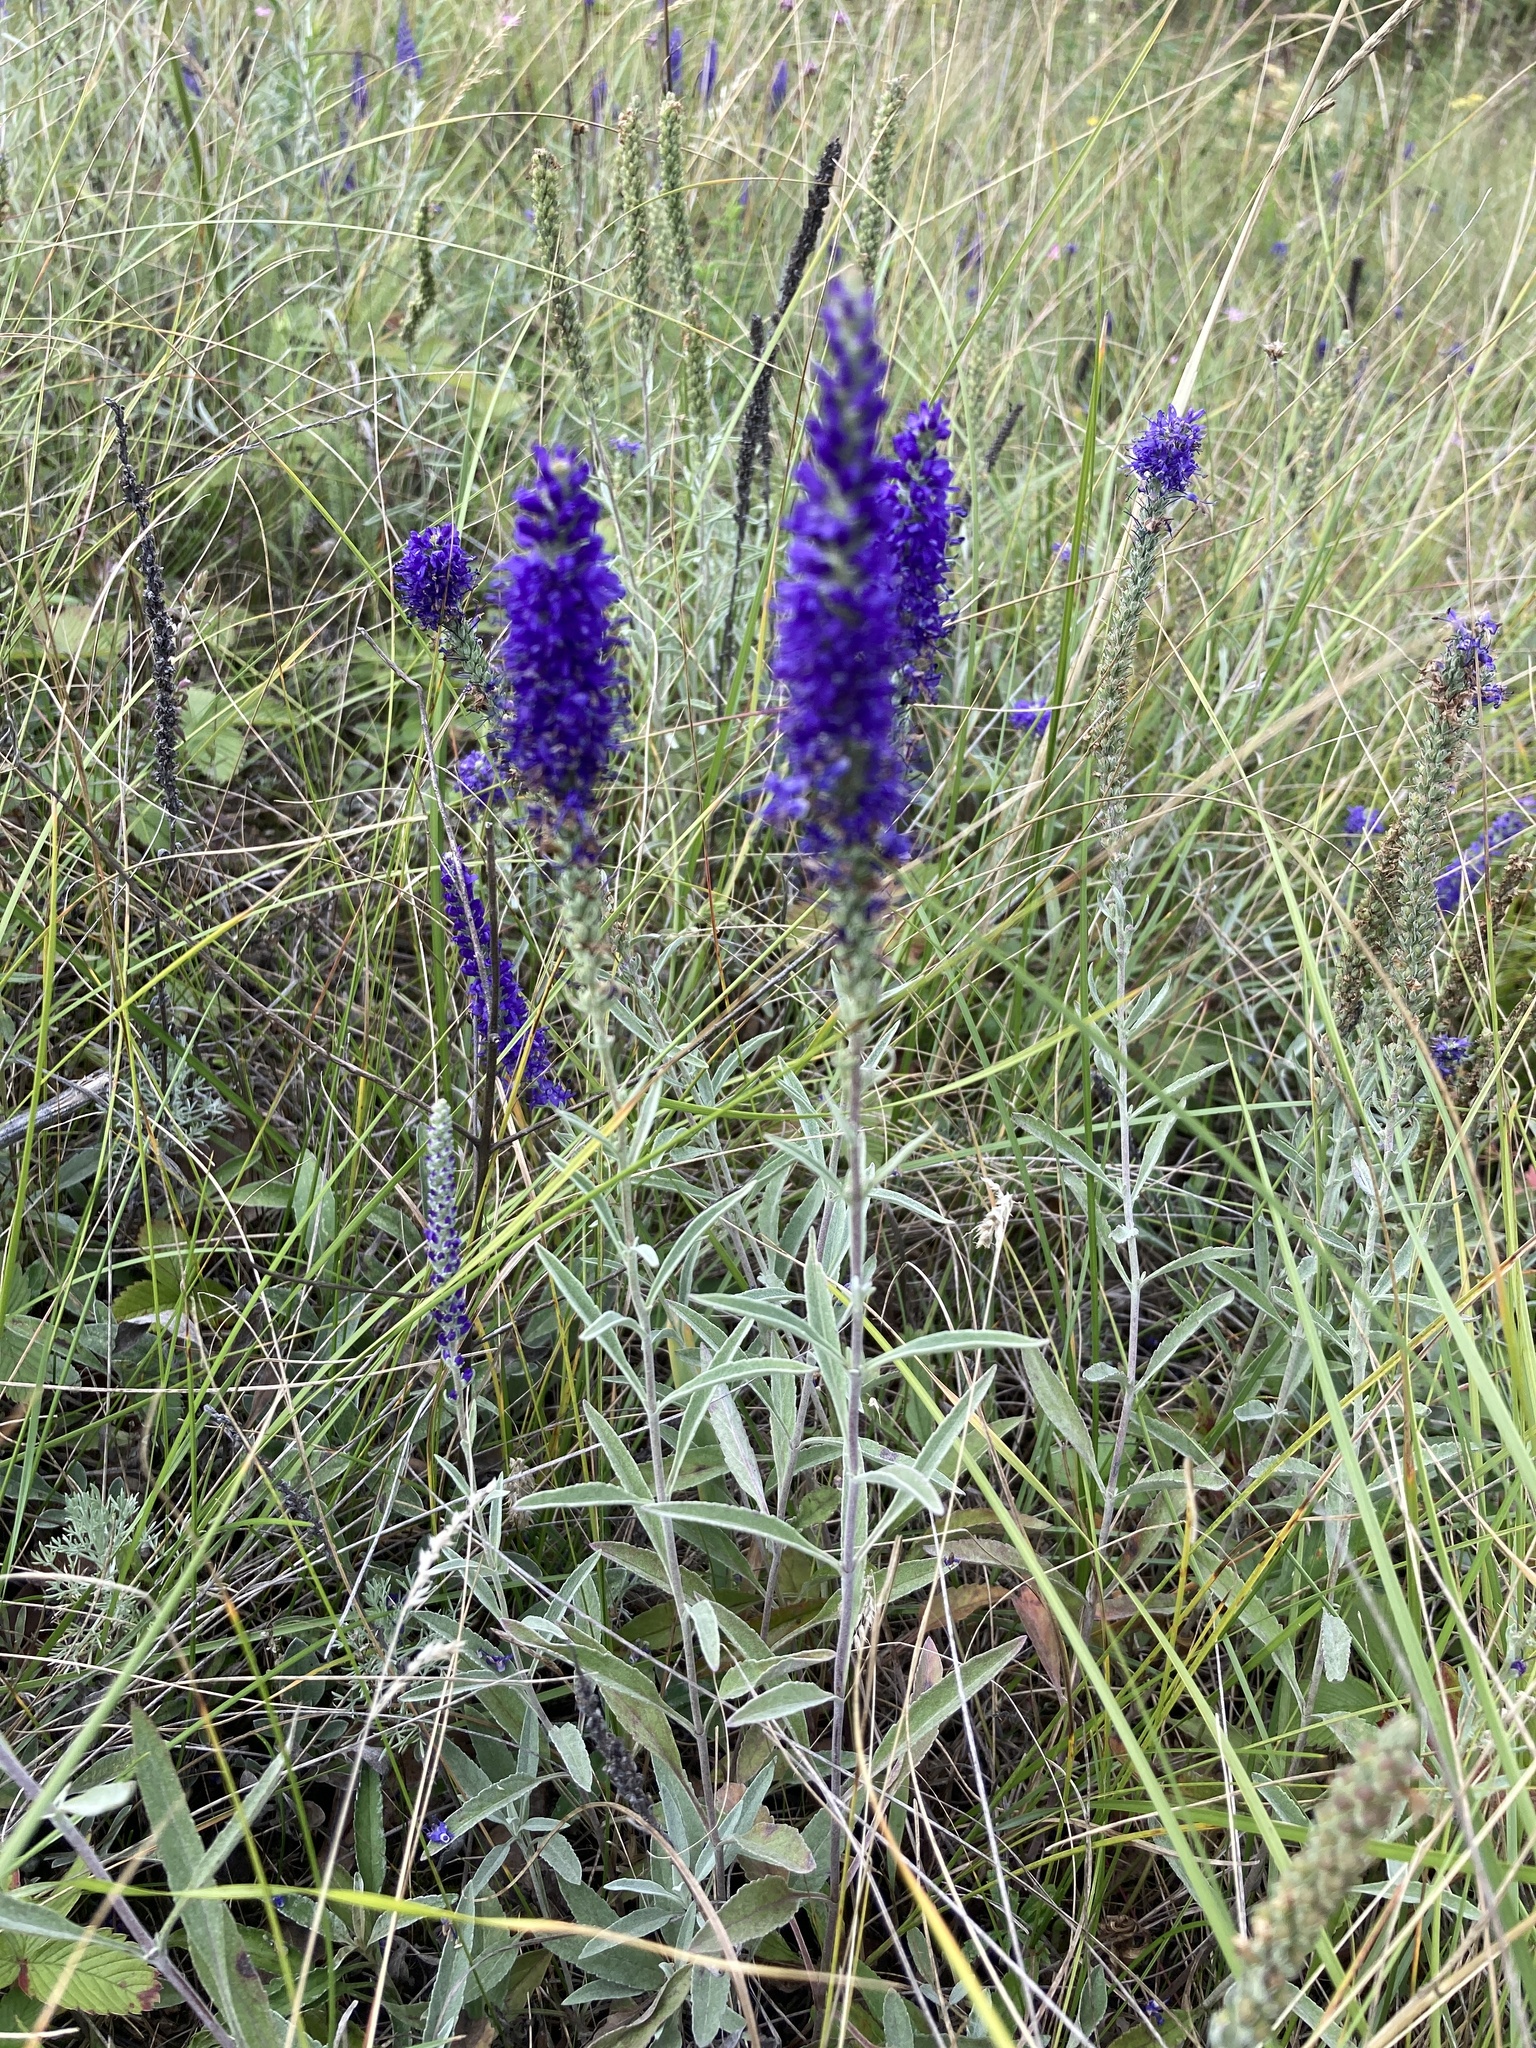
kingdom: Plantae
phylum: Tracheophyta
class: Magnoliopsida
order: Lamiales
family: Plantaginaceae
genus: Veronica
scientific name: Veronica incana
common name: Silver speedwell
